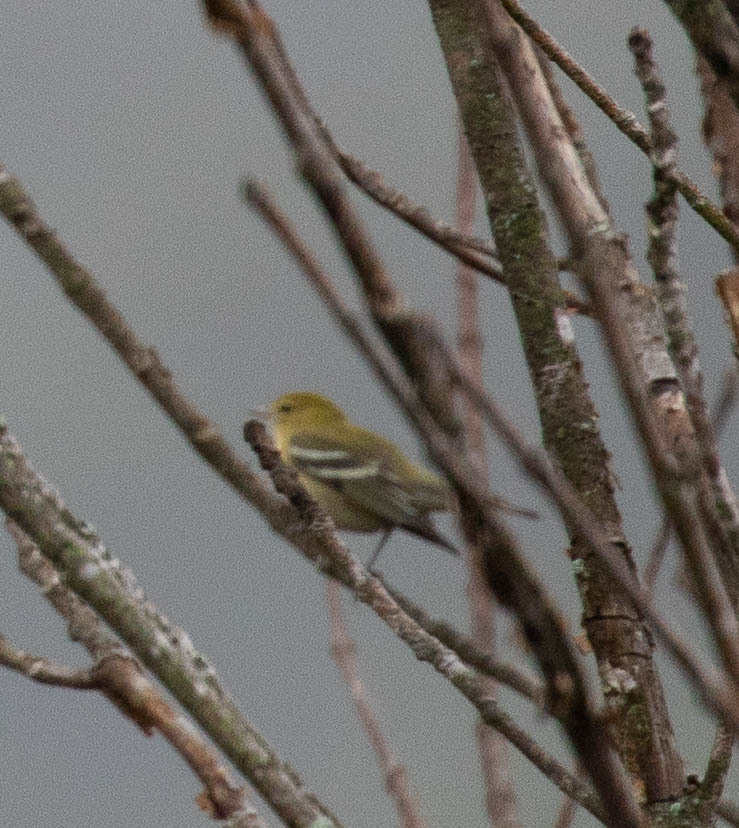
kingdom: Animalia
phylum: Chordata
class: Aves
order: Passeriformes
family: Parulidae
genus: Setophaga
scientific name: Setophaga castanea
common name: Bay-breasted warbler
